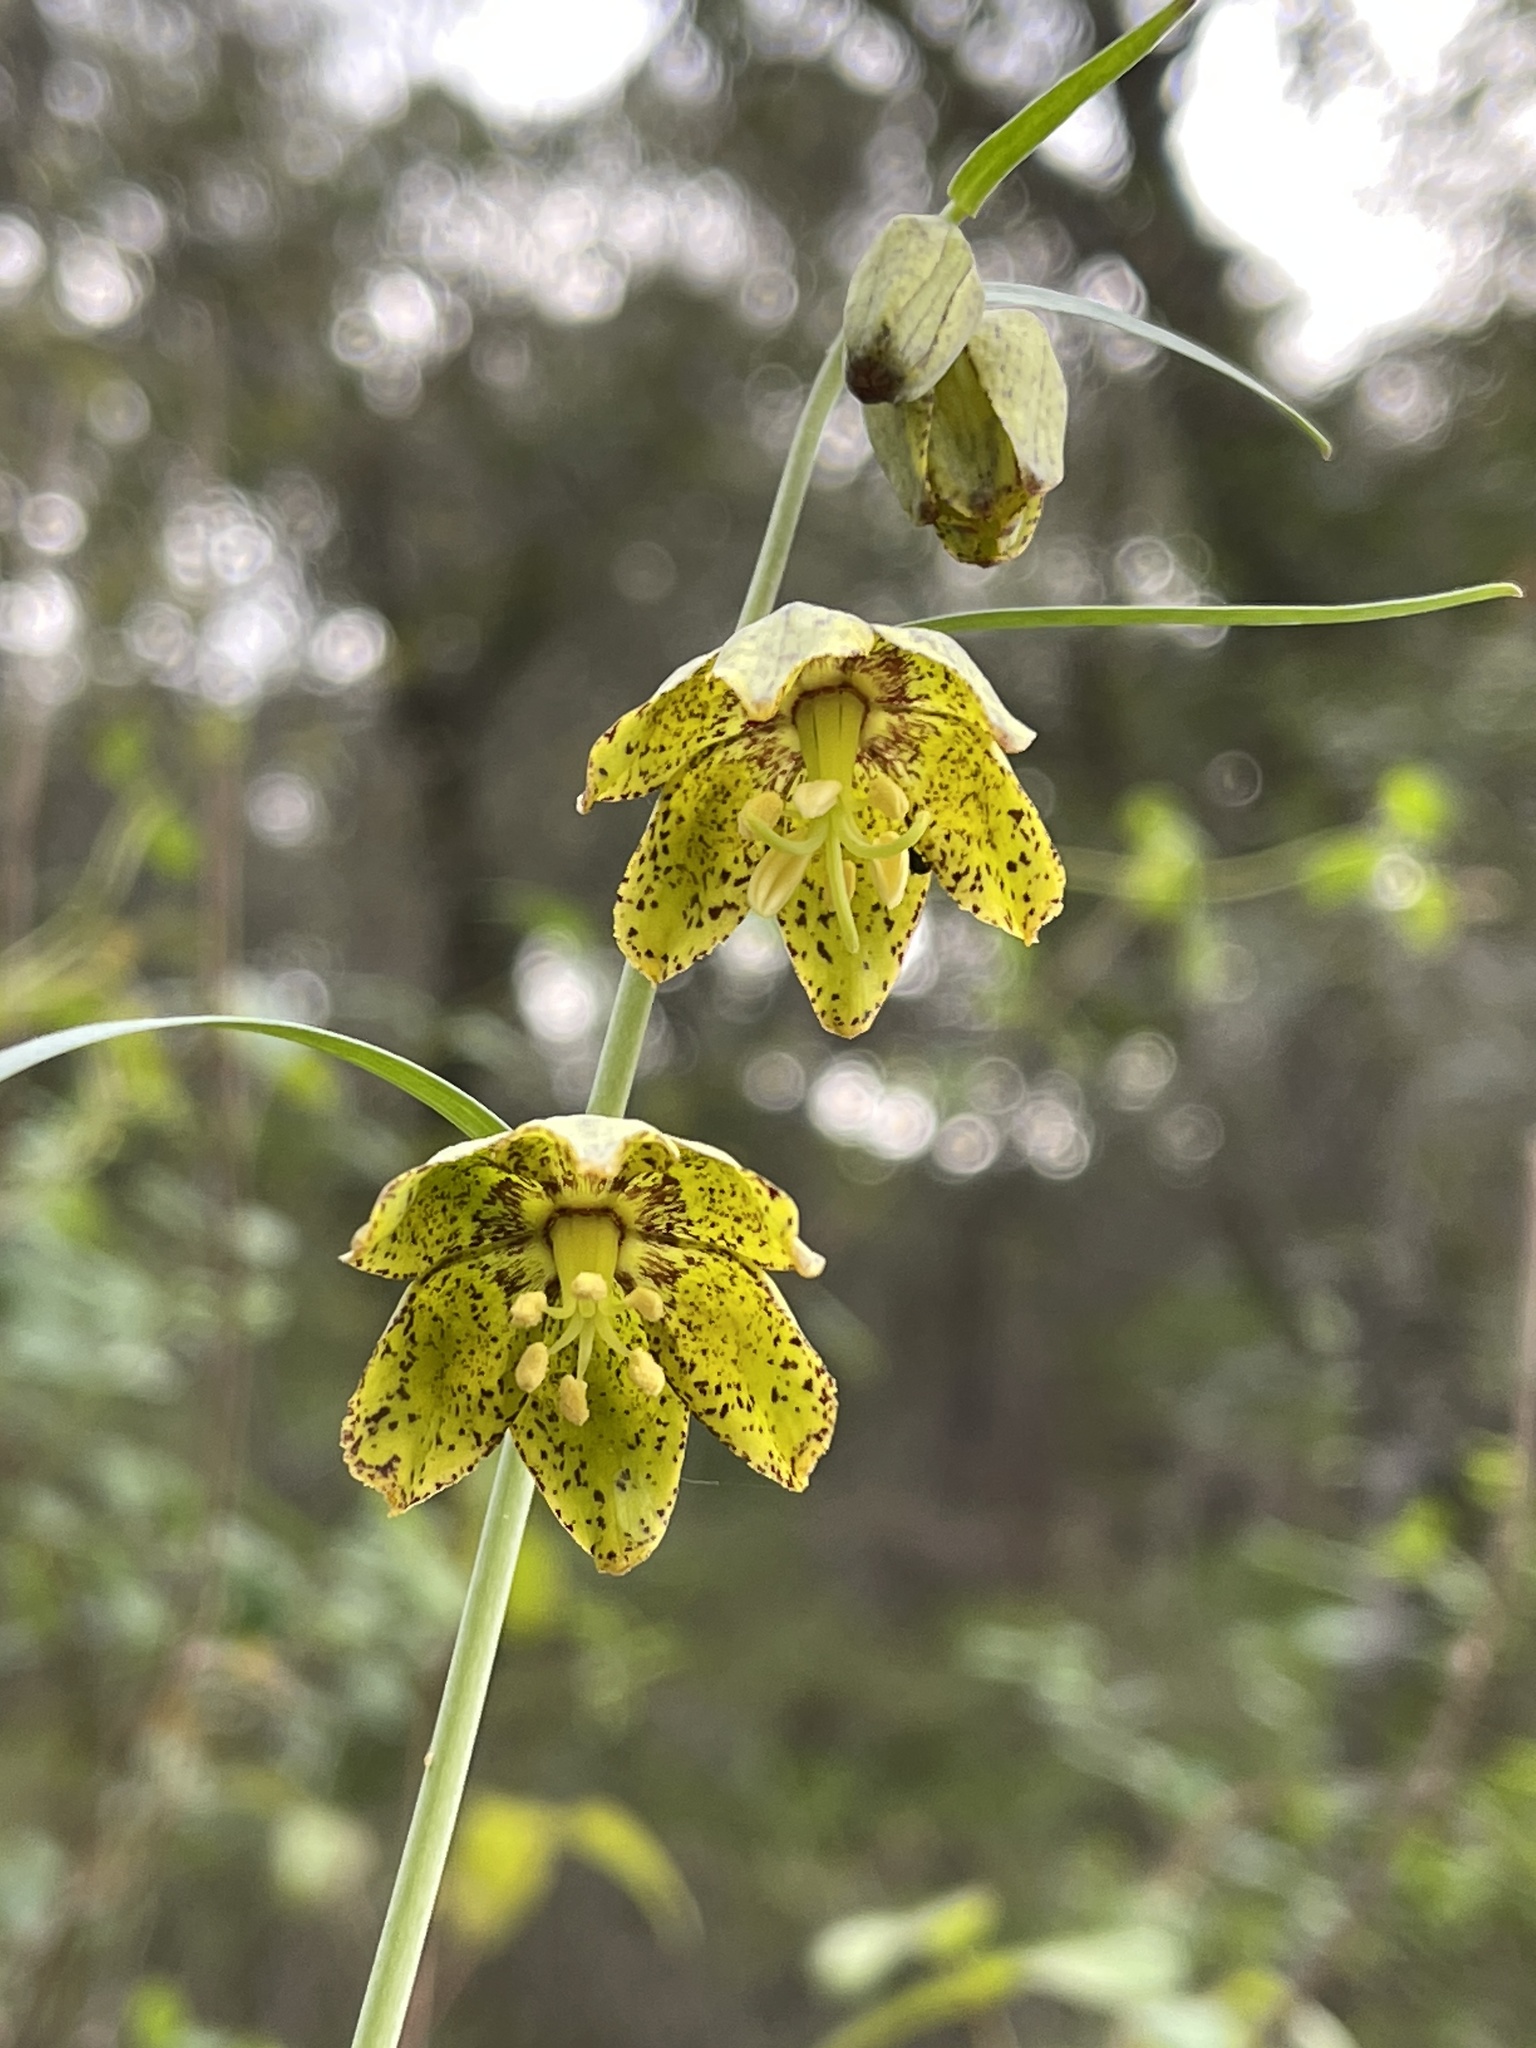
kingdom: Plantae
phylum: Tracheophyta
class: Liliopsida
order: Liliales
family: Liliaceae
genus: Fritillaria
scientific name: Fritillaria ojaiensis
